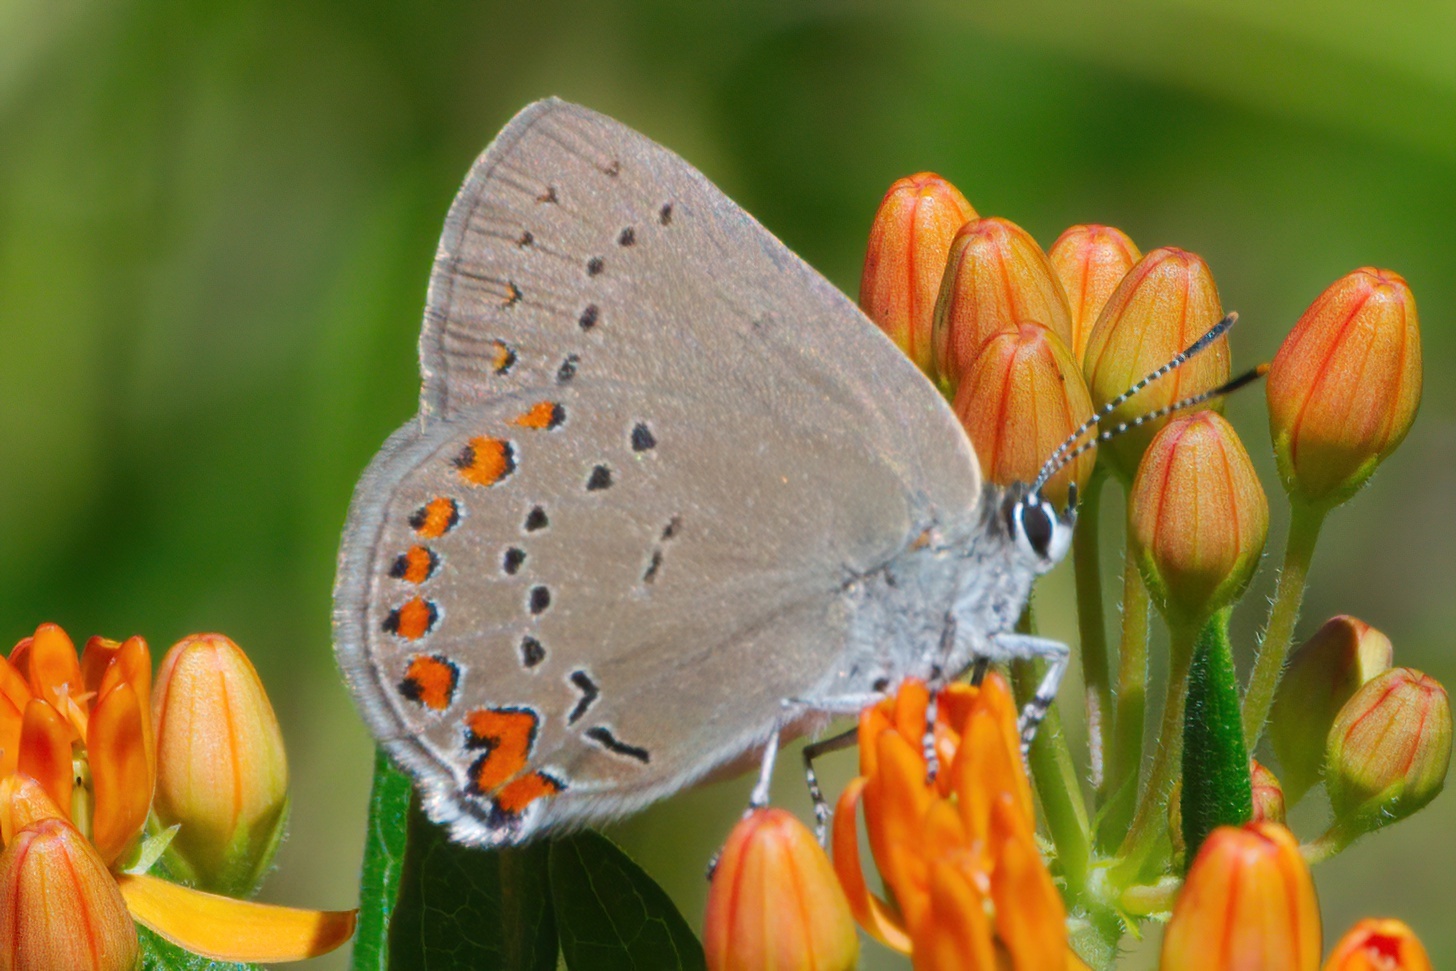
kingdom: Animalia
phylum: Arthropoda
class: Insecta
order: Lepidoptera
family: Lycaenidae
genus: Harkenclenus
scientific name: Harkenclenus titus
